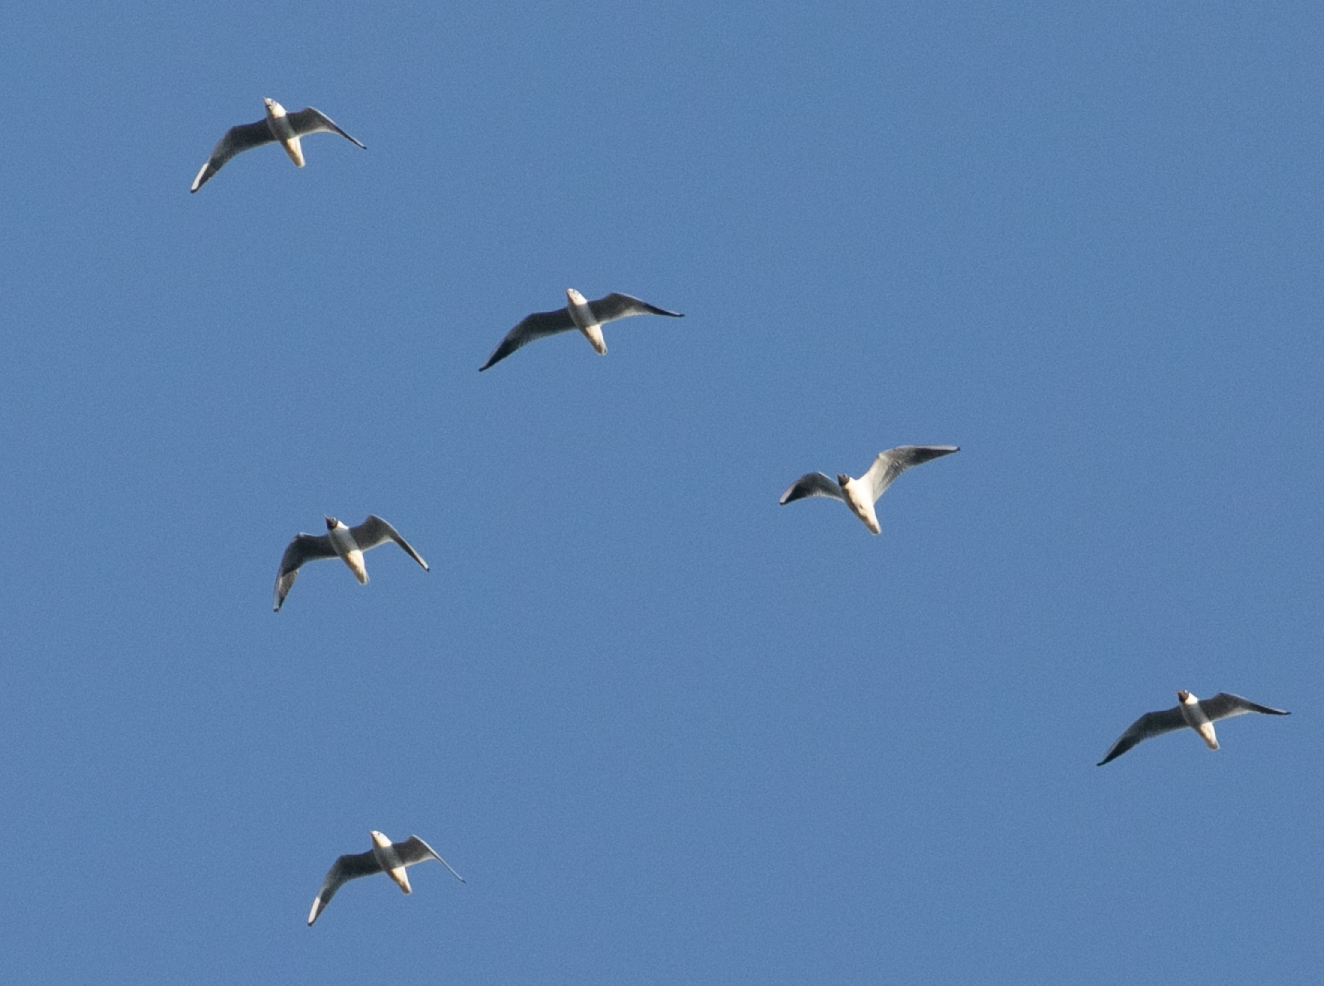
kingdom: Animalia
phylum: Chordata
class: Aves
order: Charadriiformes
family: Laridae
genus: Chroicocephalus
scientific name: Chroicocephalus ridibundus
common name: Black-headed gull
